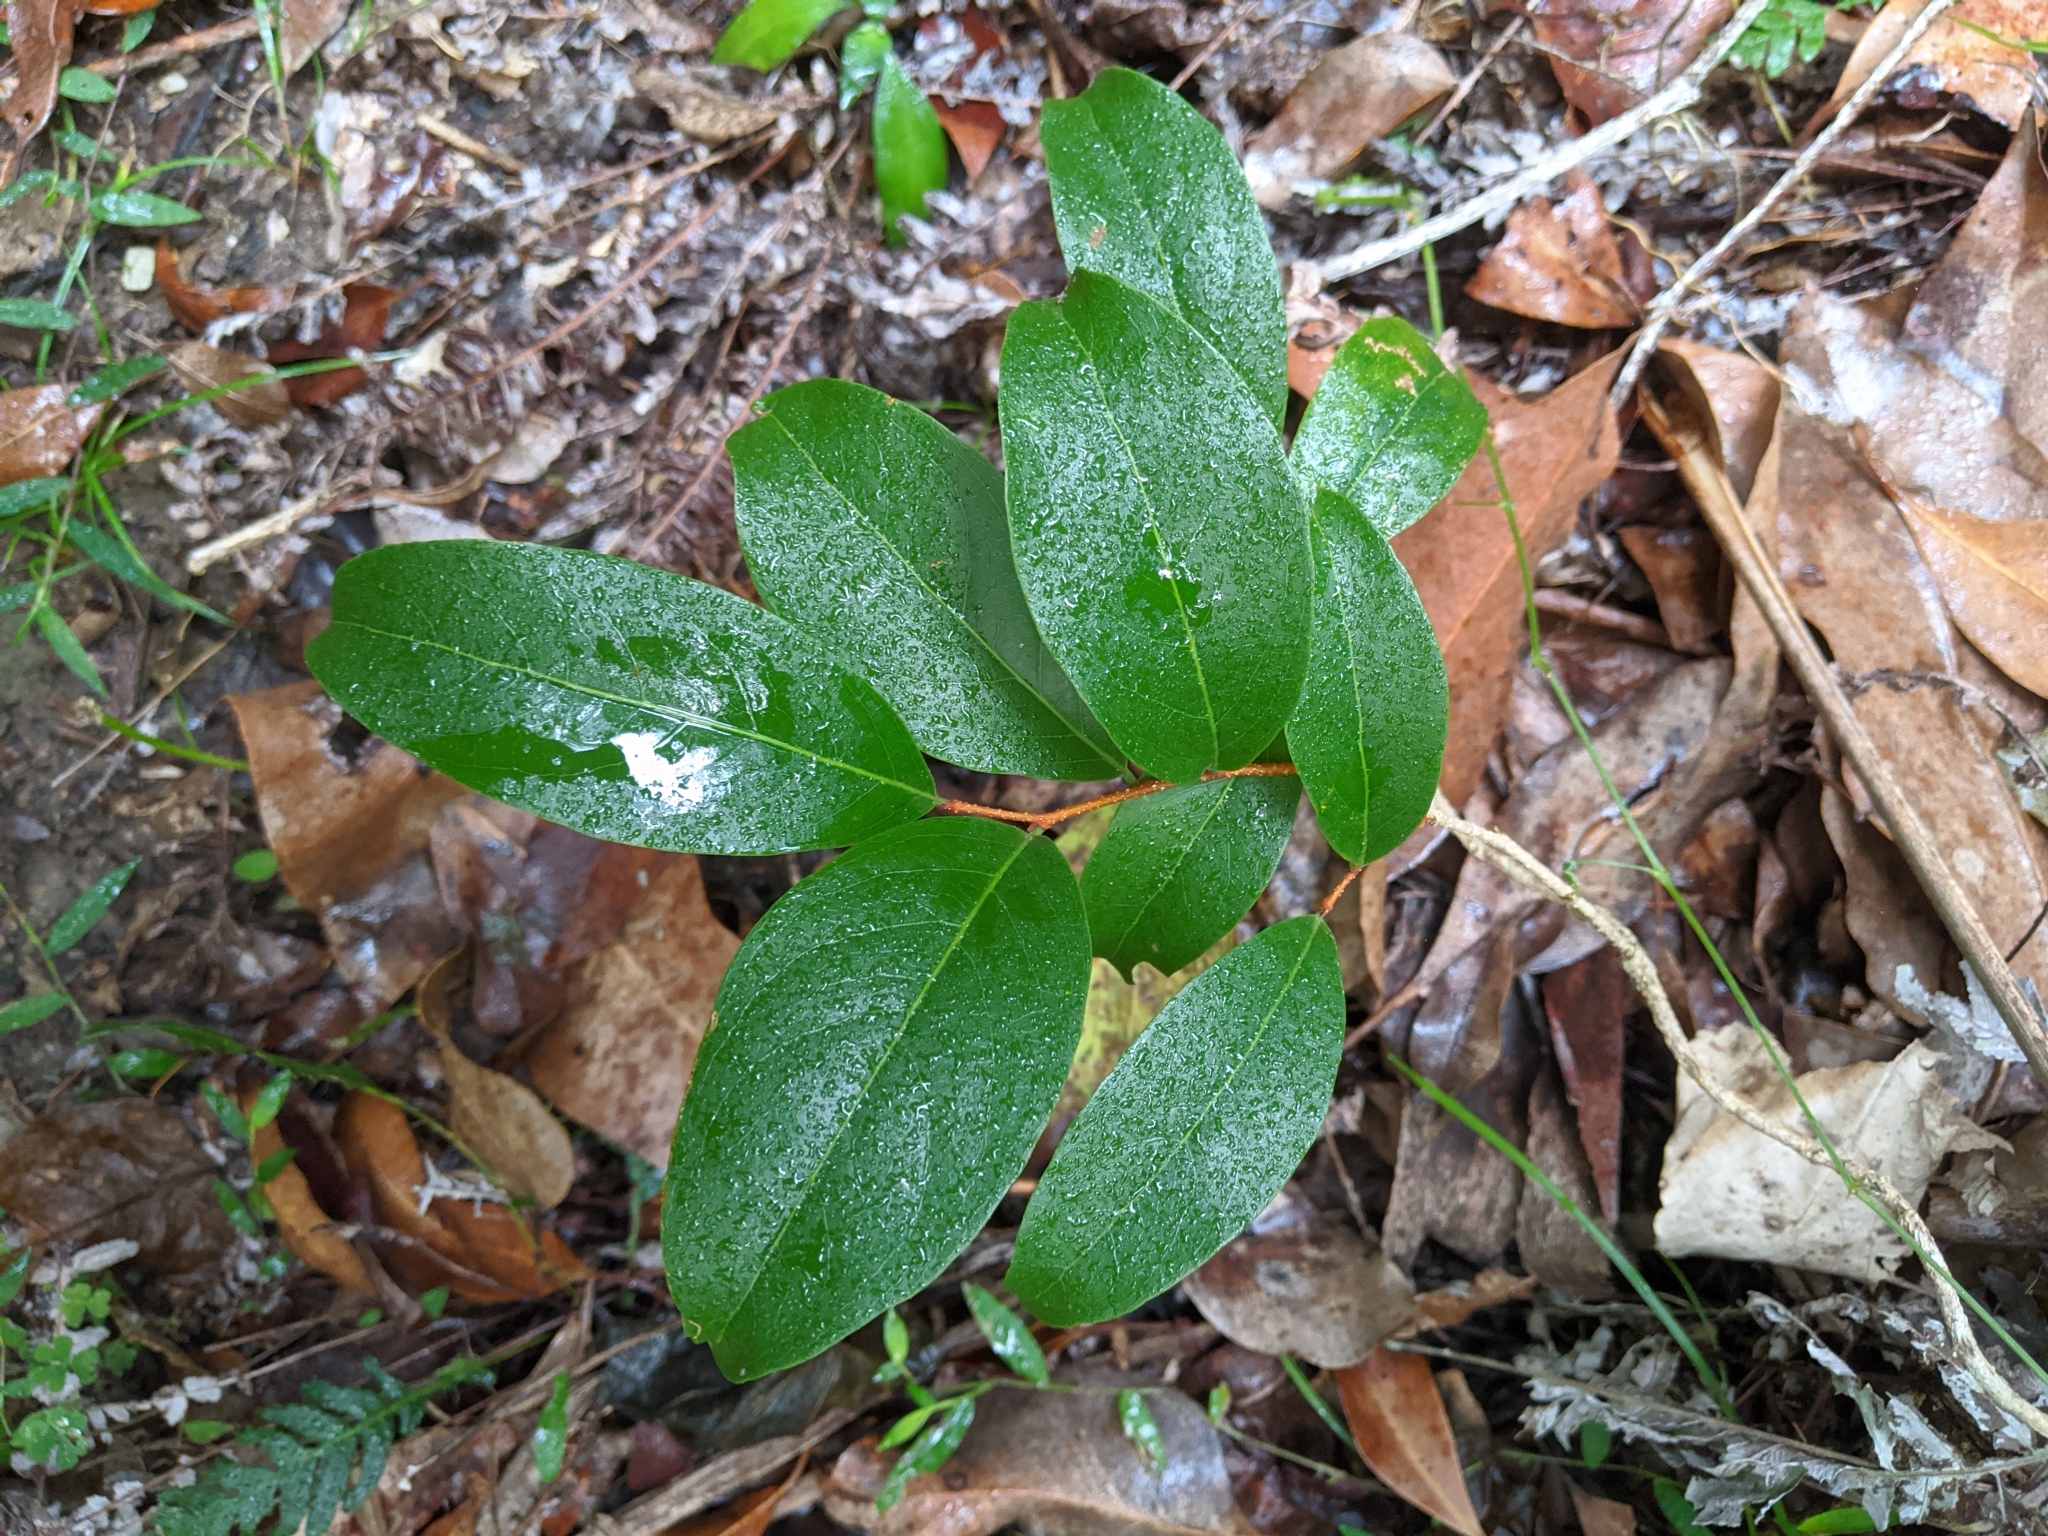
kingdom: Plantae
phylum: Tracheophyta
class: Magnoliopsida
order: Celastrales
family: Celastraceae
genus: Celastrus
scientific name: Celastrus subspicatus
